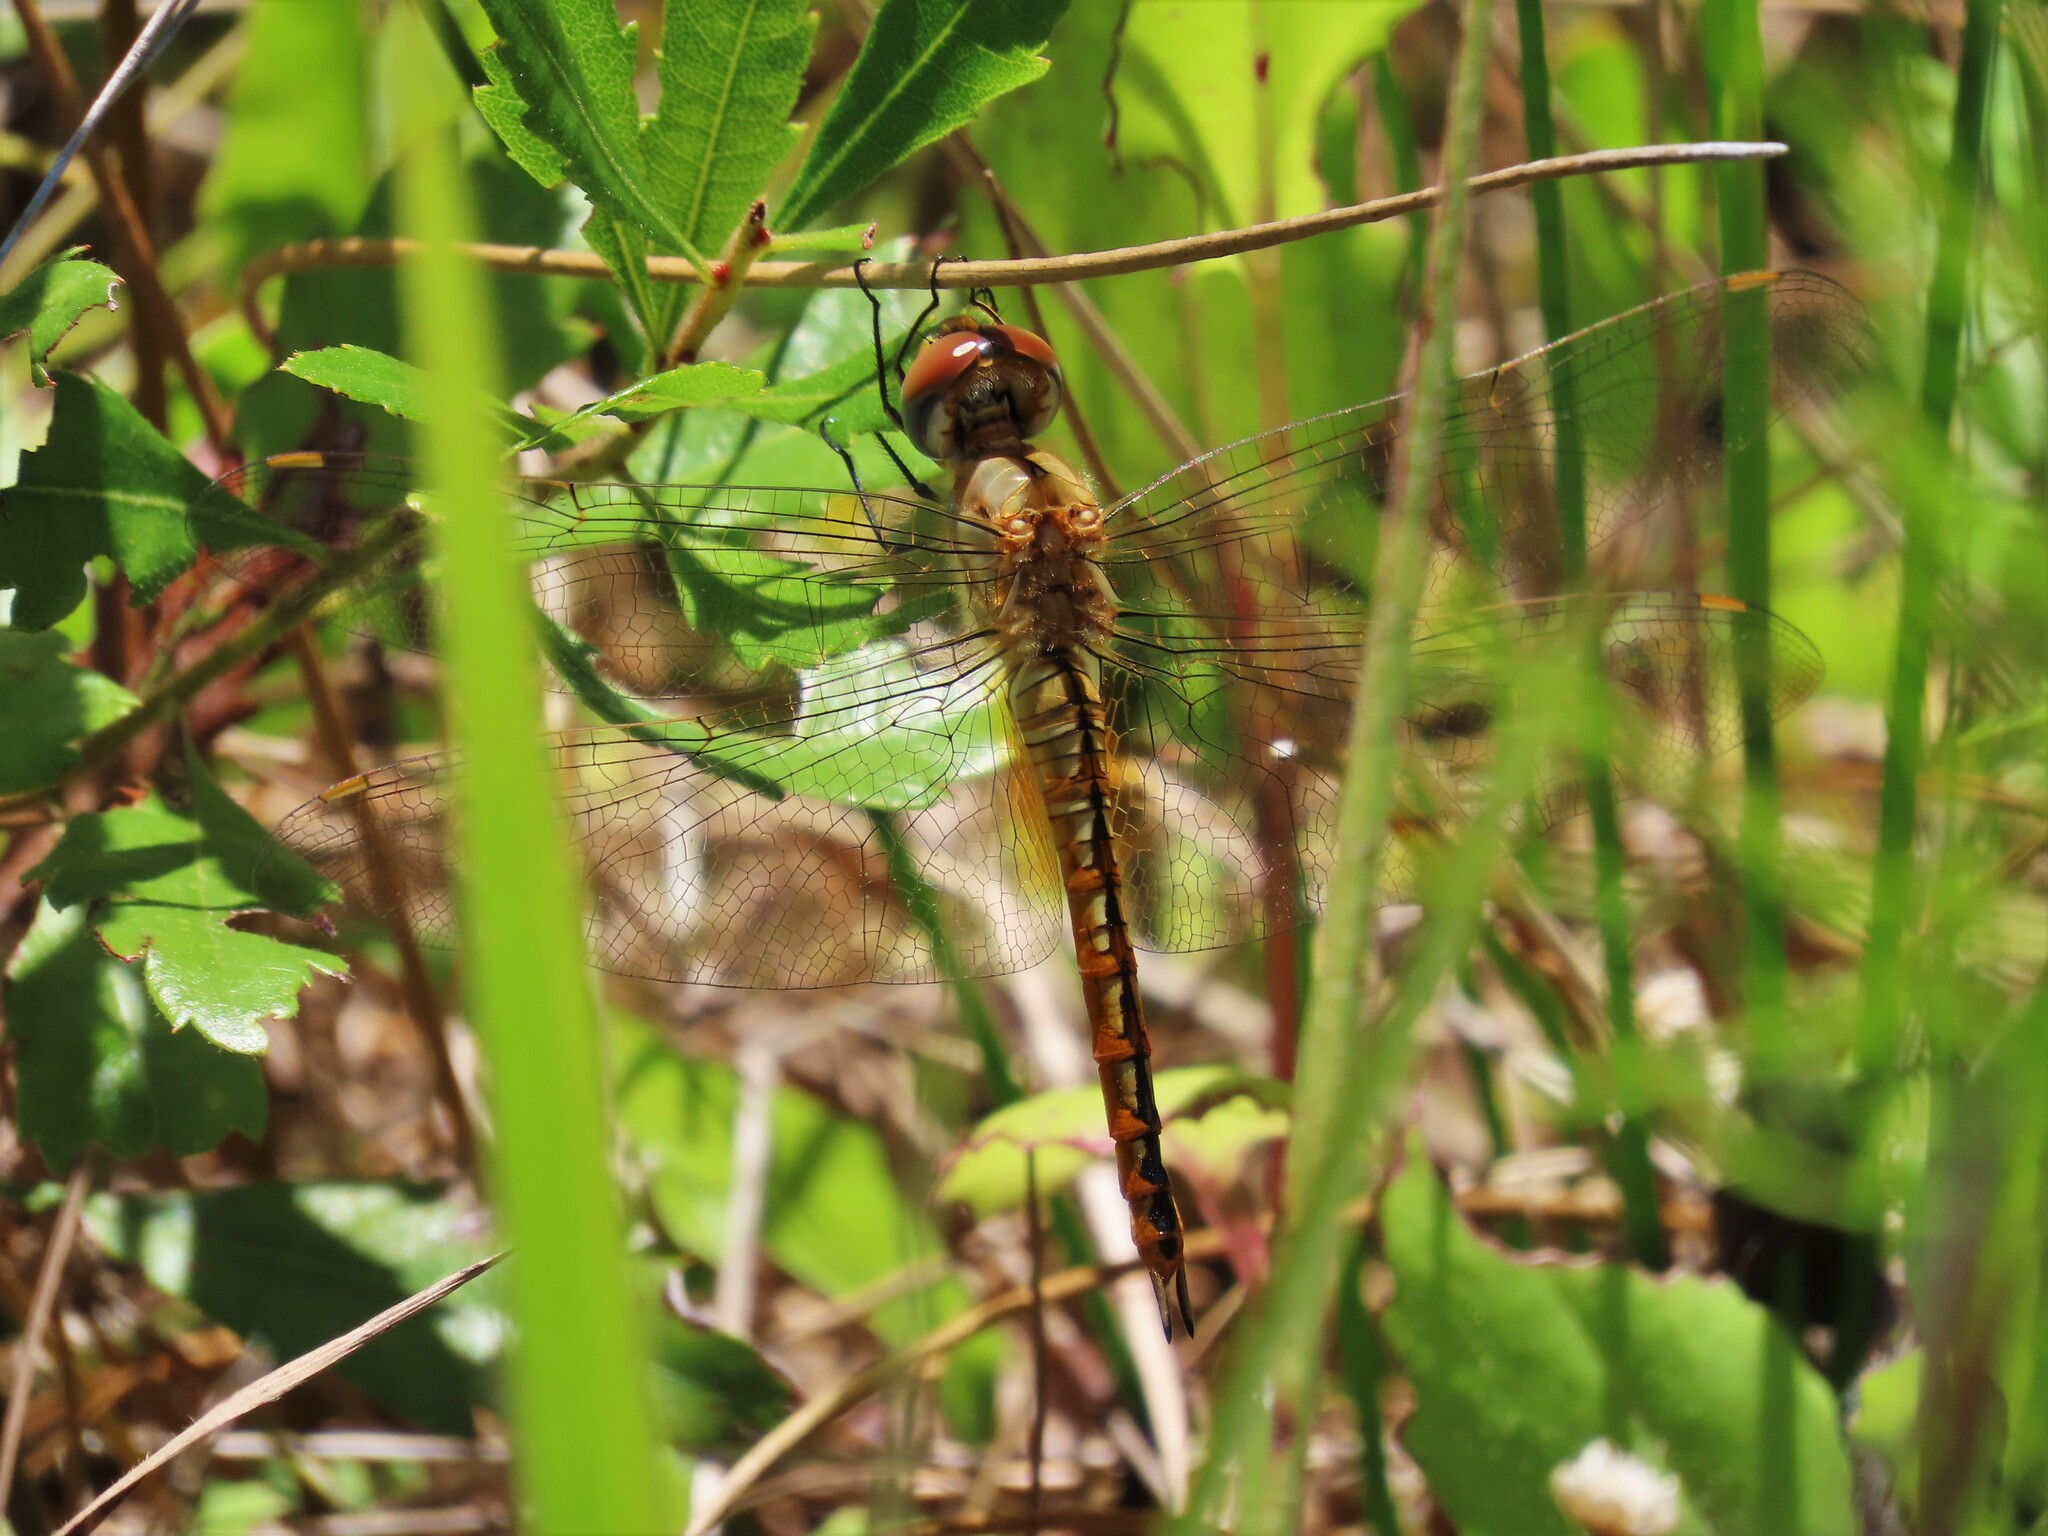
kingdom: Animalia
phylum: Arthropoda
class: Insecta
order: Odonata
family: Libellulidae
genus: Pantala
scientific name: Pantala flavescens
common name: Wandering glider
